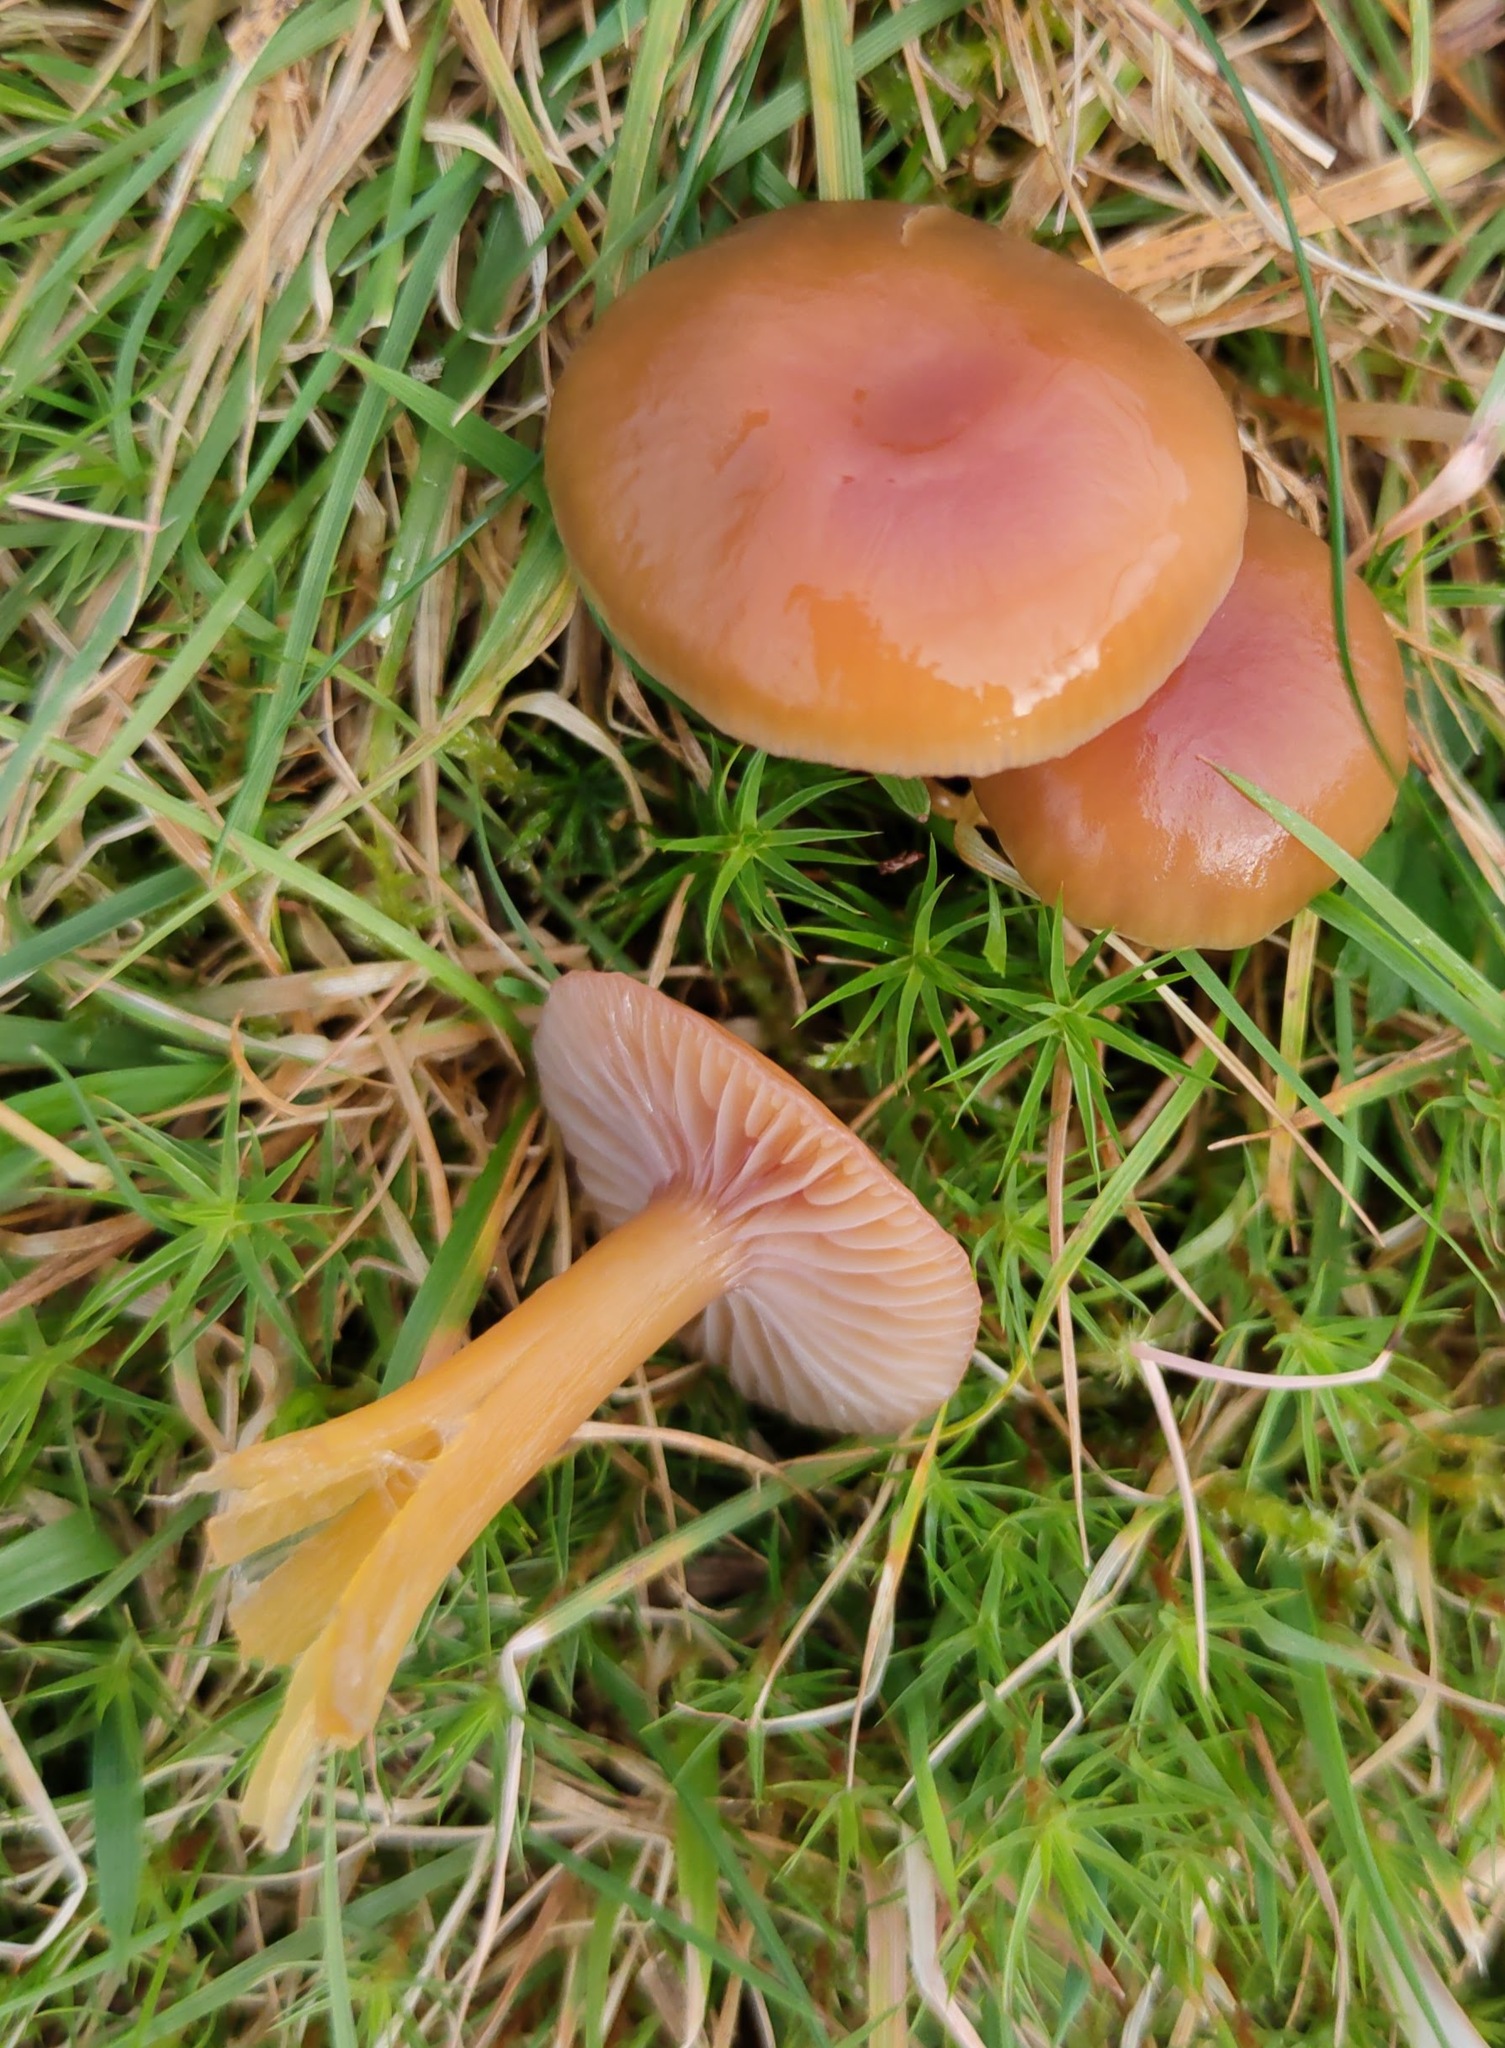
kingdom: Fungi
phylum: Basidiomycota
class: Agaricomycetes
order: Agaricales
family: Hygrophoraceae
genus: Gliophorus
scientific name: Gliophorus laetus
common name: Heath waxcap
